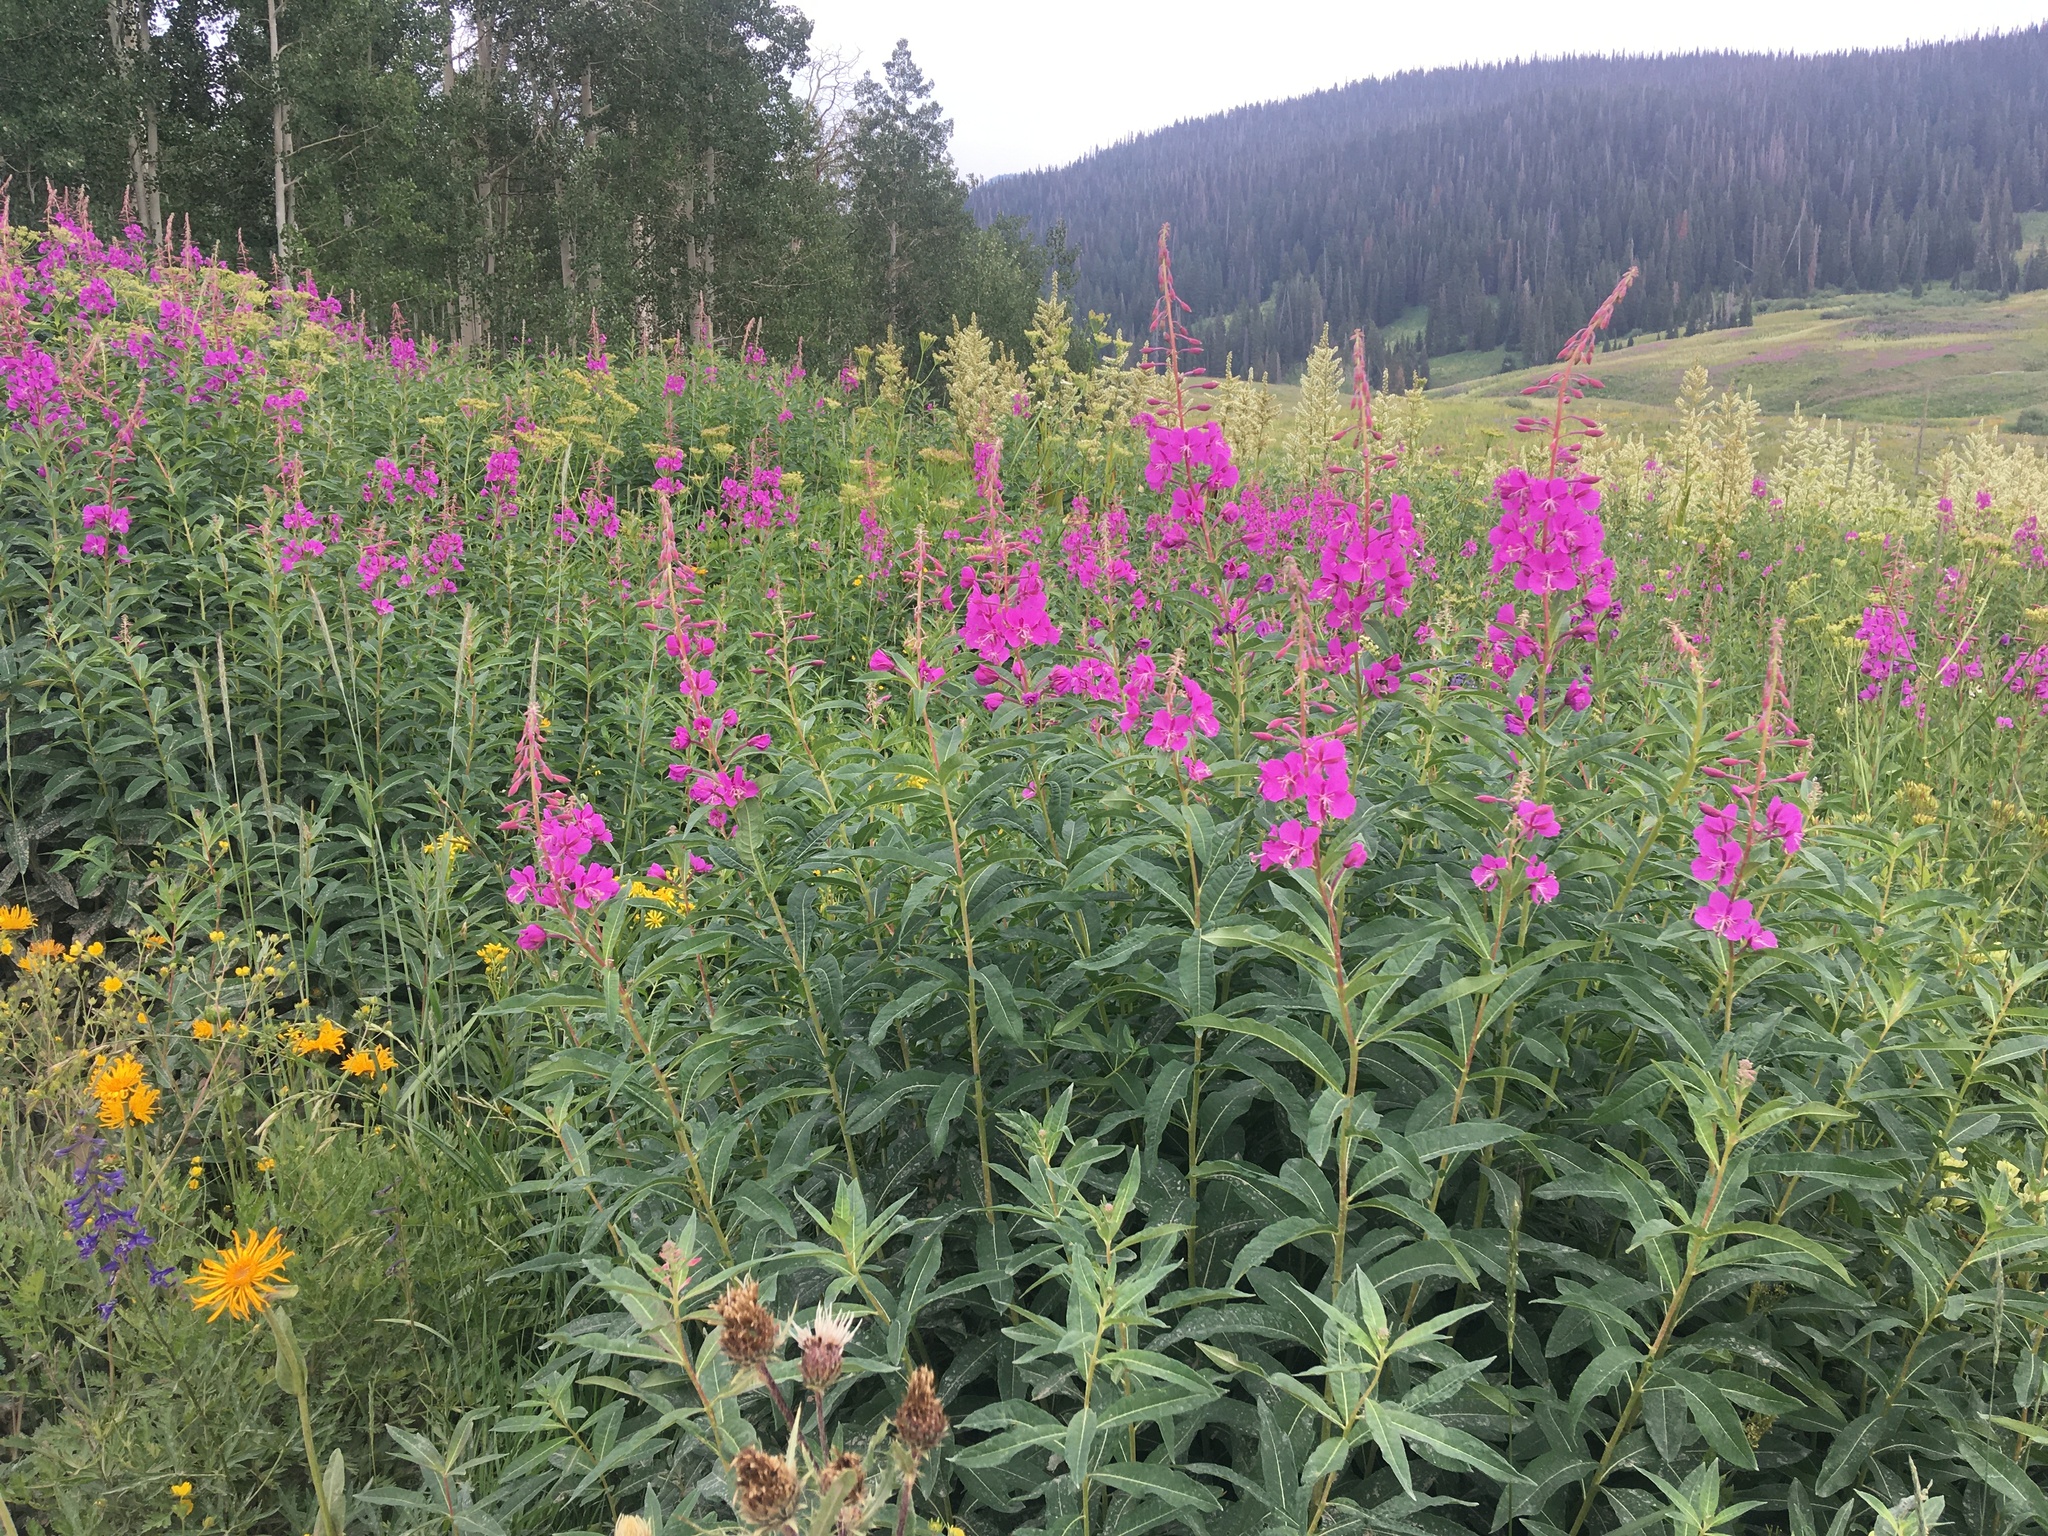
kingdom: Plantae
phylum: Tracheophyta
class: Magnoliopsida
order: Myrtales
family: Onagraceae
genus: Chamaenerion
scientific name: Chamaenerion angustifolium
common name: Fireweed
